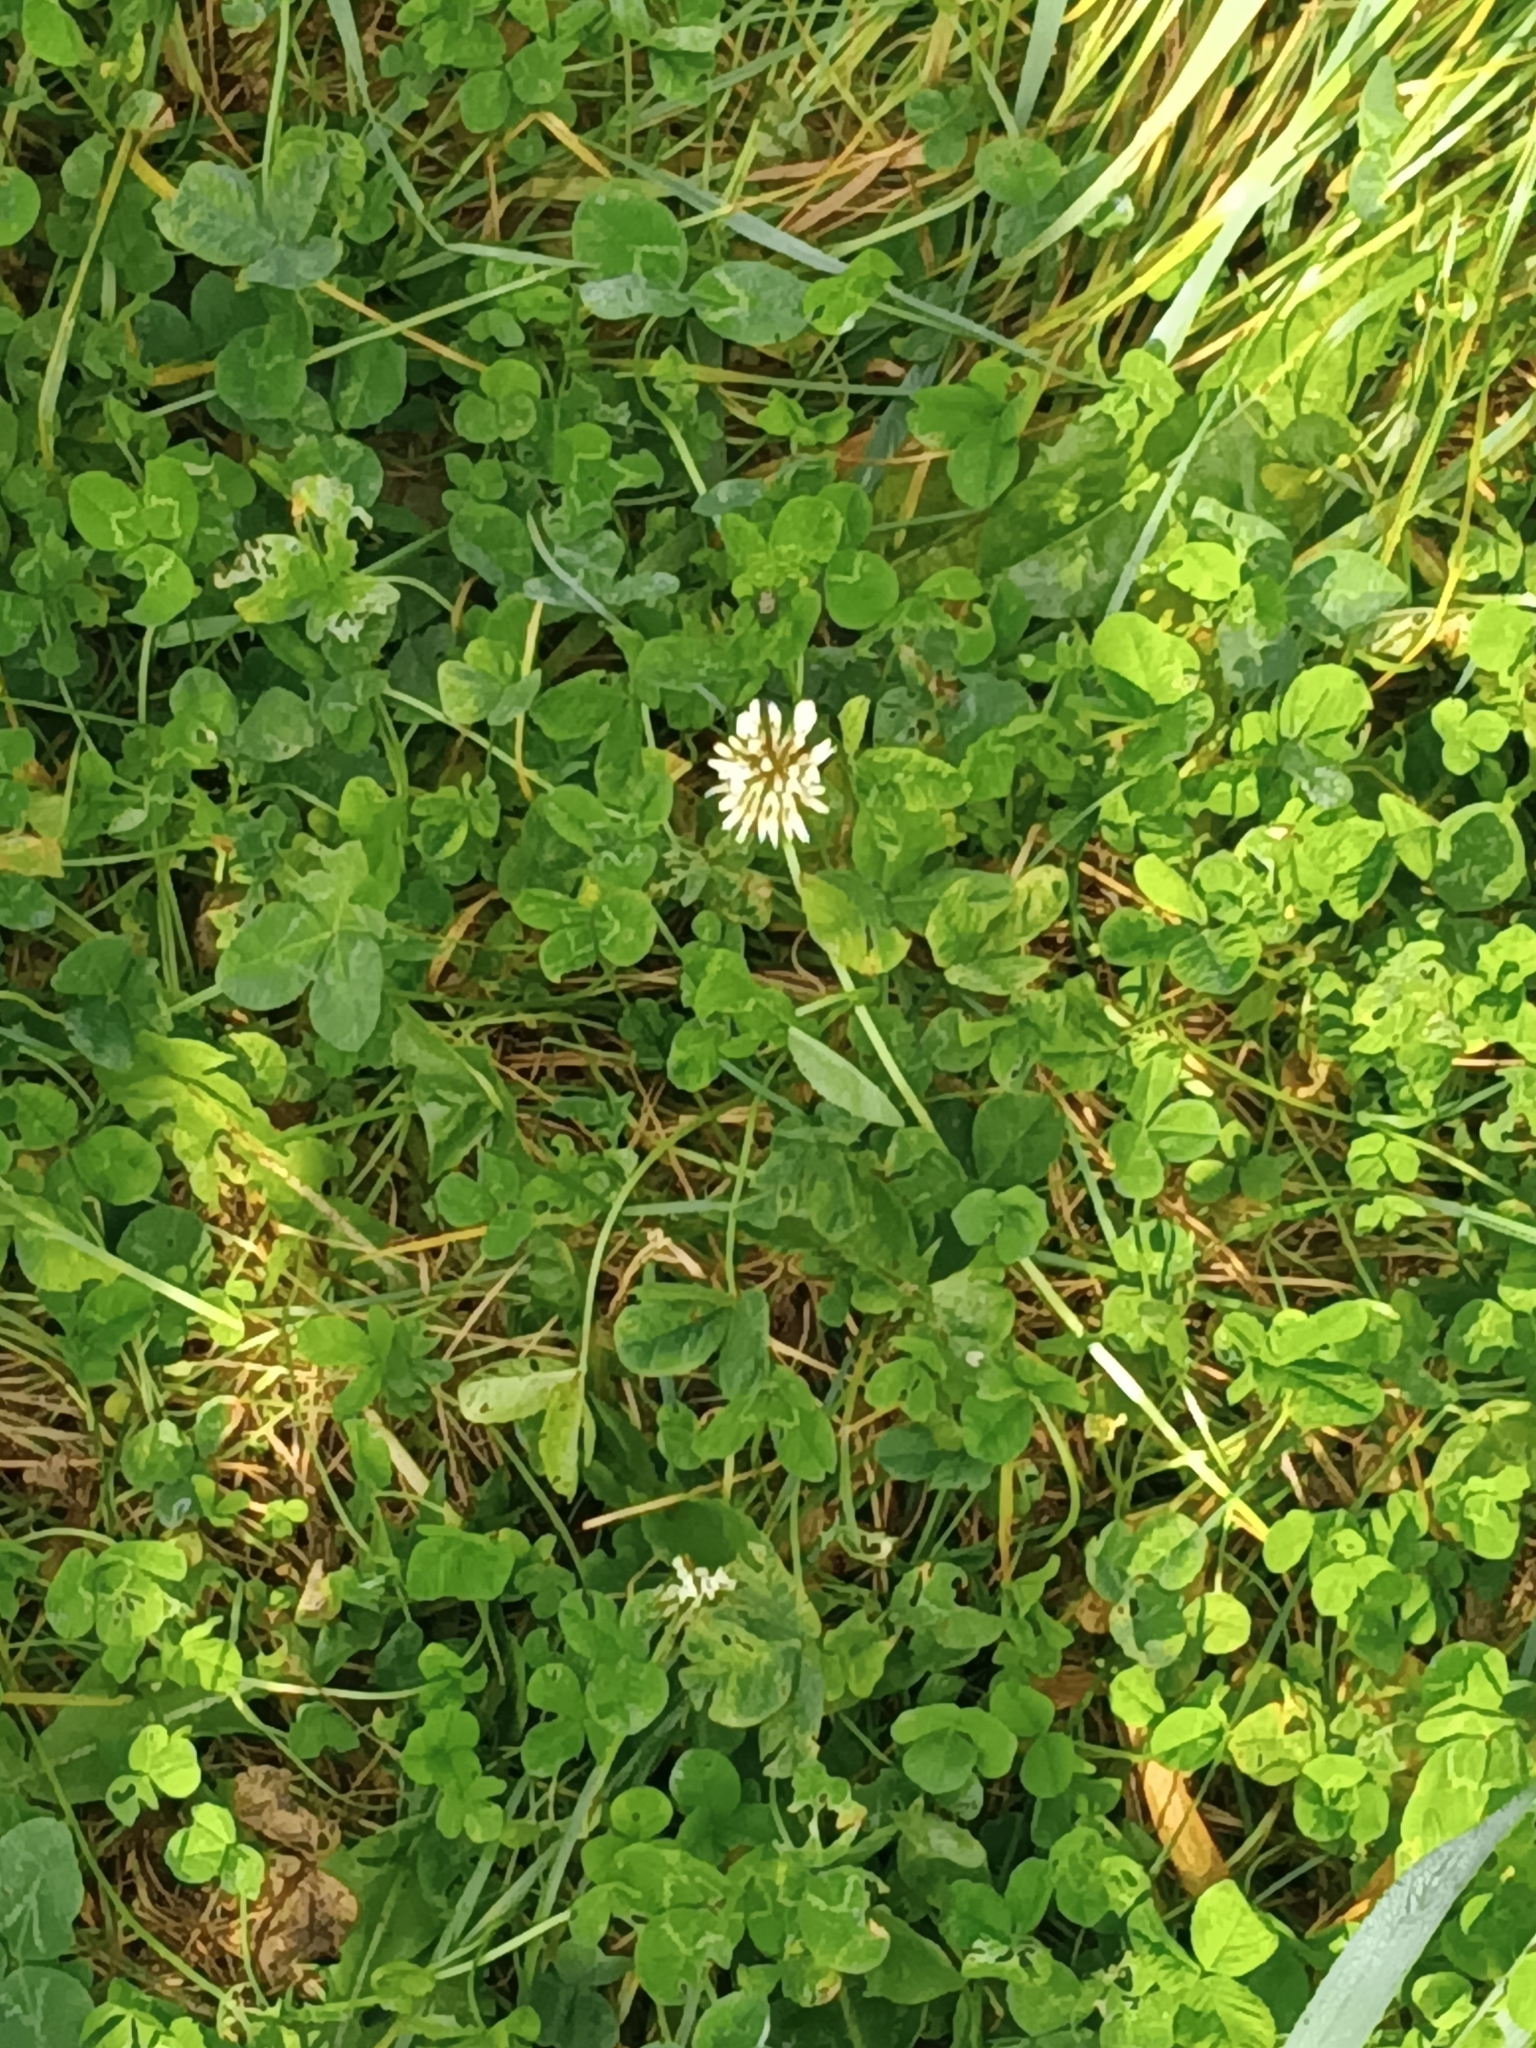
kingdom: Plantae
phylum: Tracheophyta
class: Magnoliopsida
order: Fabales
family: Fabaceae
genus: Trifolium
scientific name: Trifolium repens
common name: White clover
